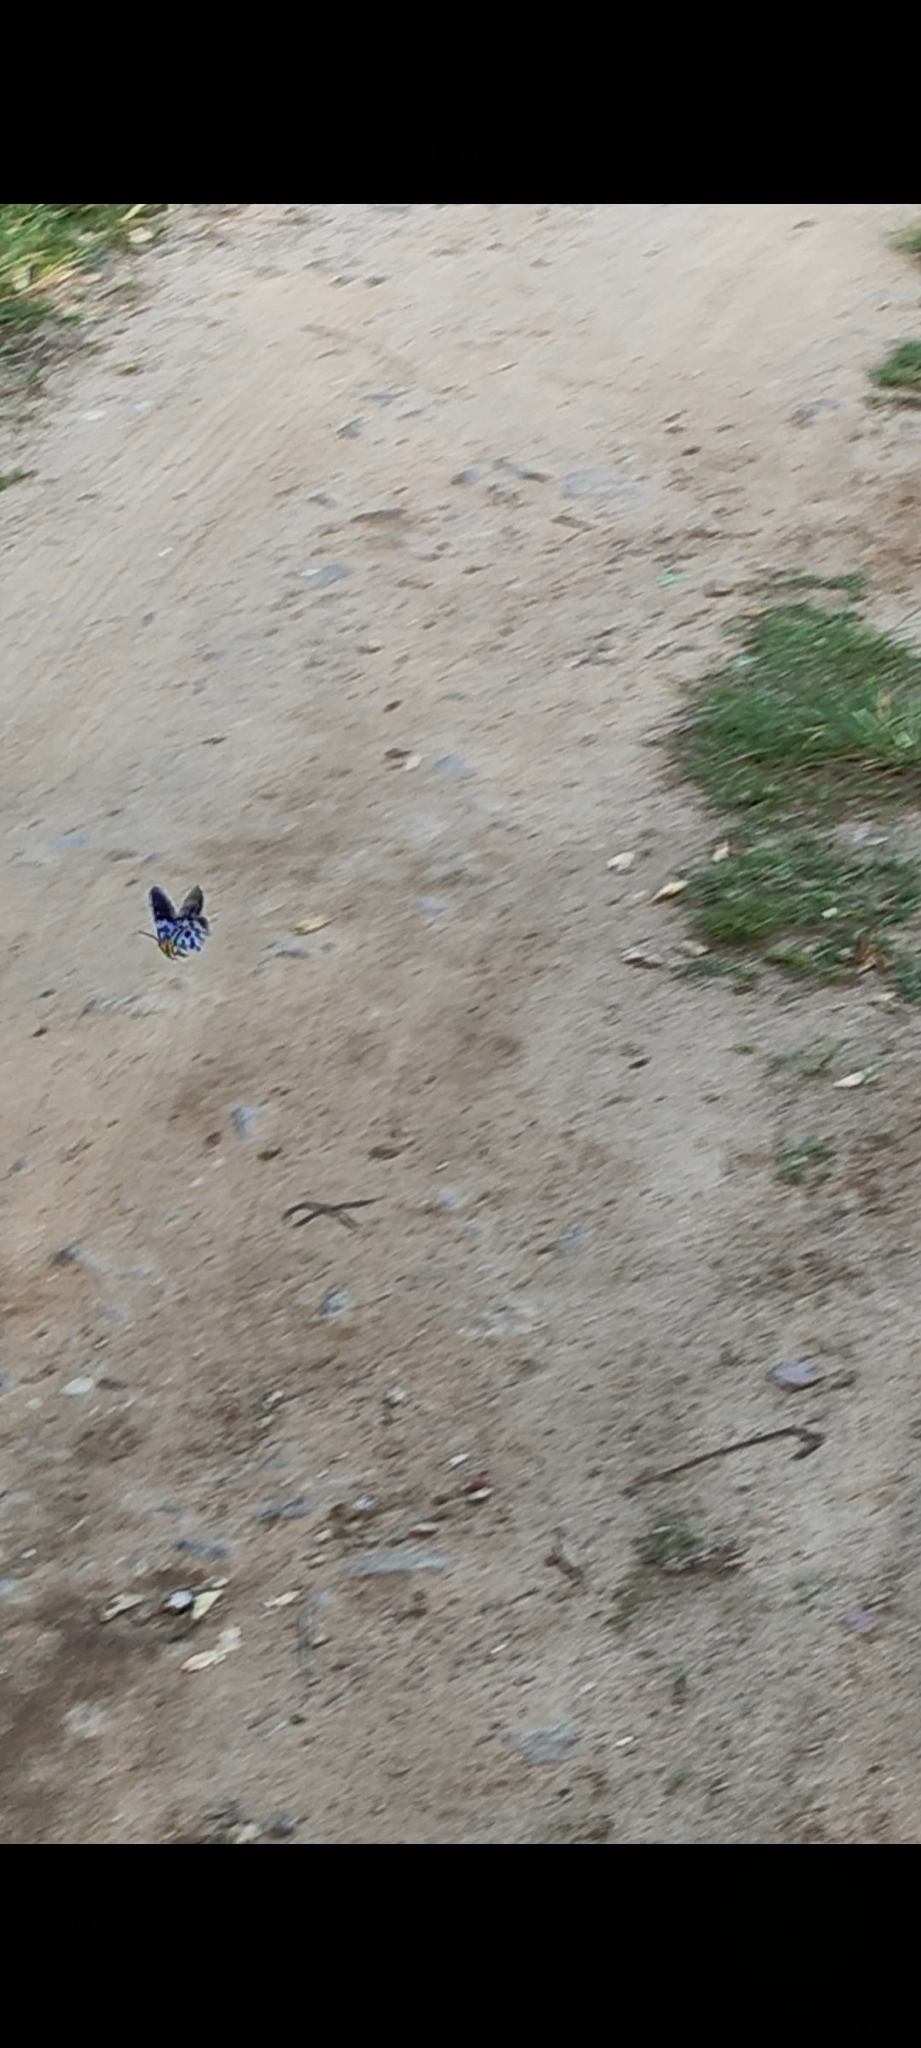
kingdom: Animalia
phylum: Arthropoda
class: Insecta
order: Lepidoptera
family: Geometridae
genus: Dysphania
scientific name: Dysphania percota
